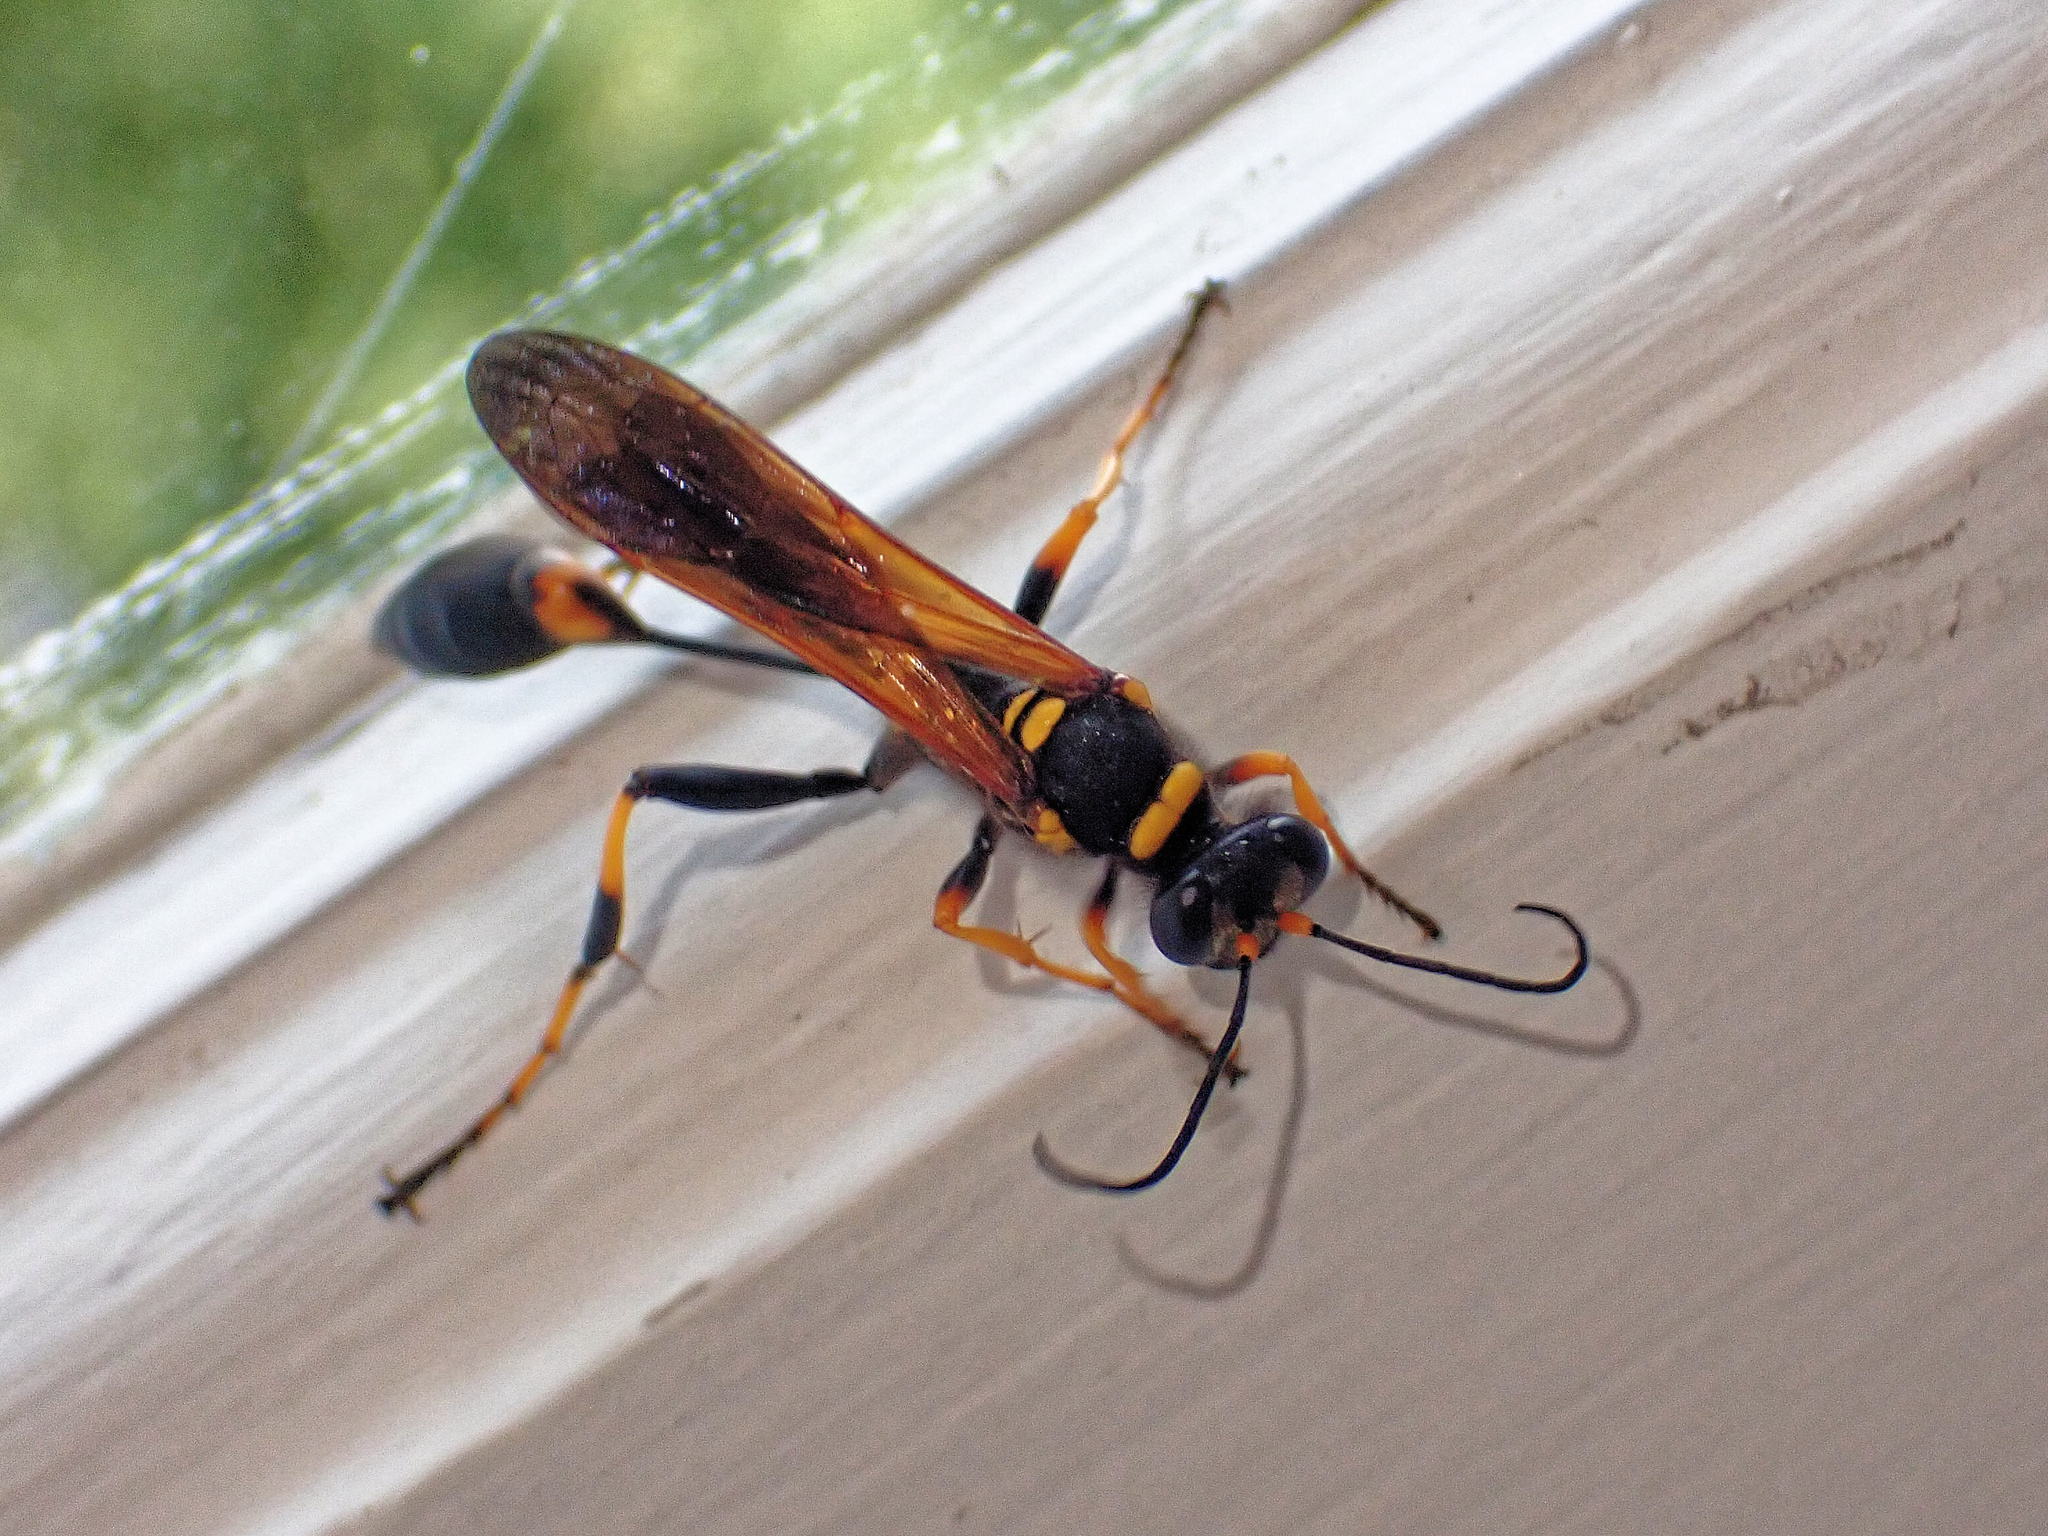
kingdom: Animalia
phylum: Arthropoda
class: Insecta
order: Hymenoptera
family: Sphecidae
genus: Sceliphron
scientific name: Sceliphron caementarium
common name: Mud dauber
